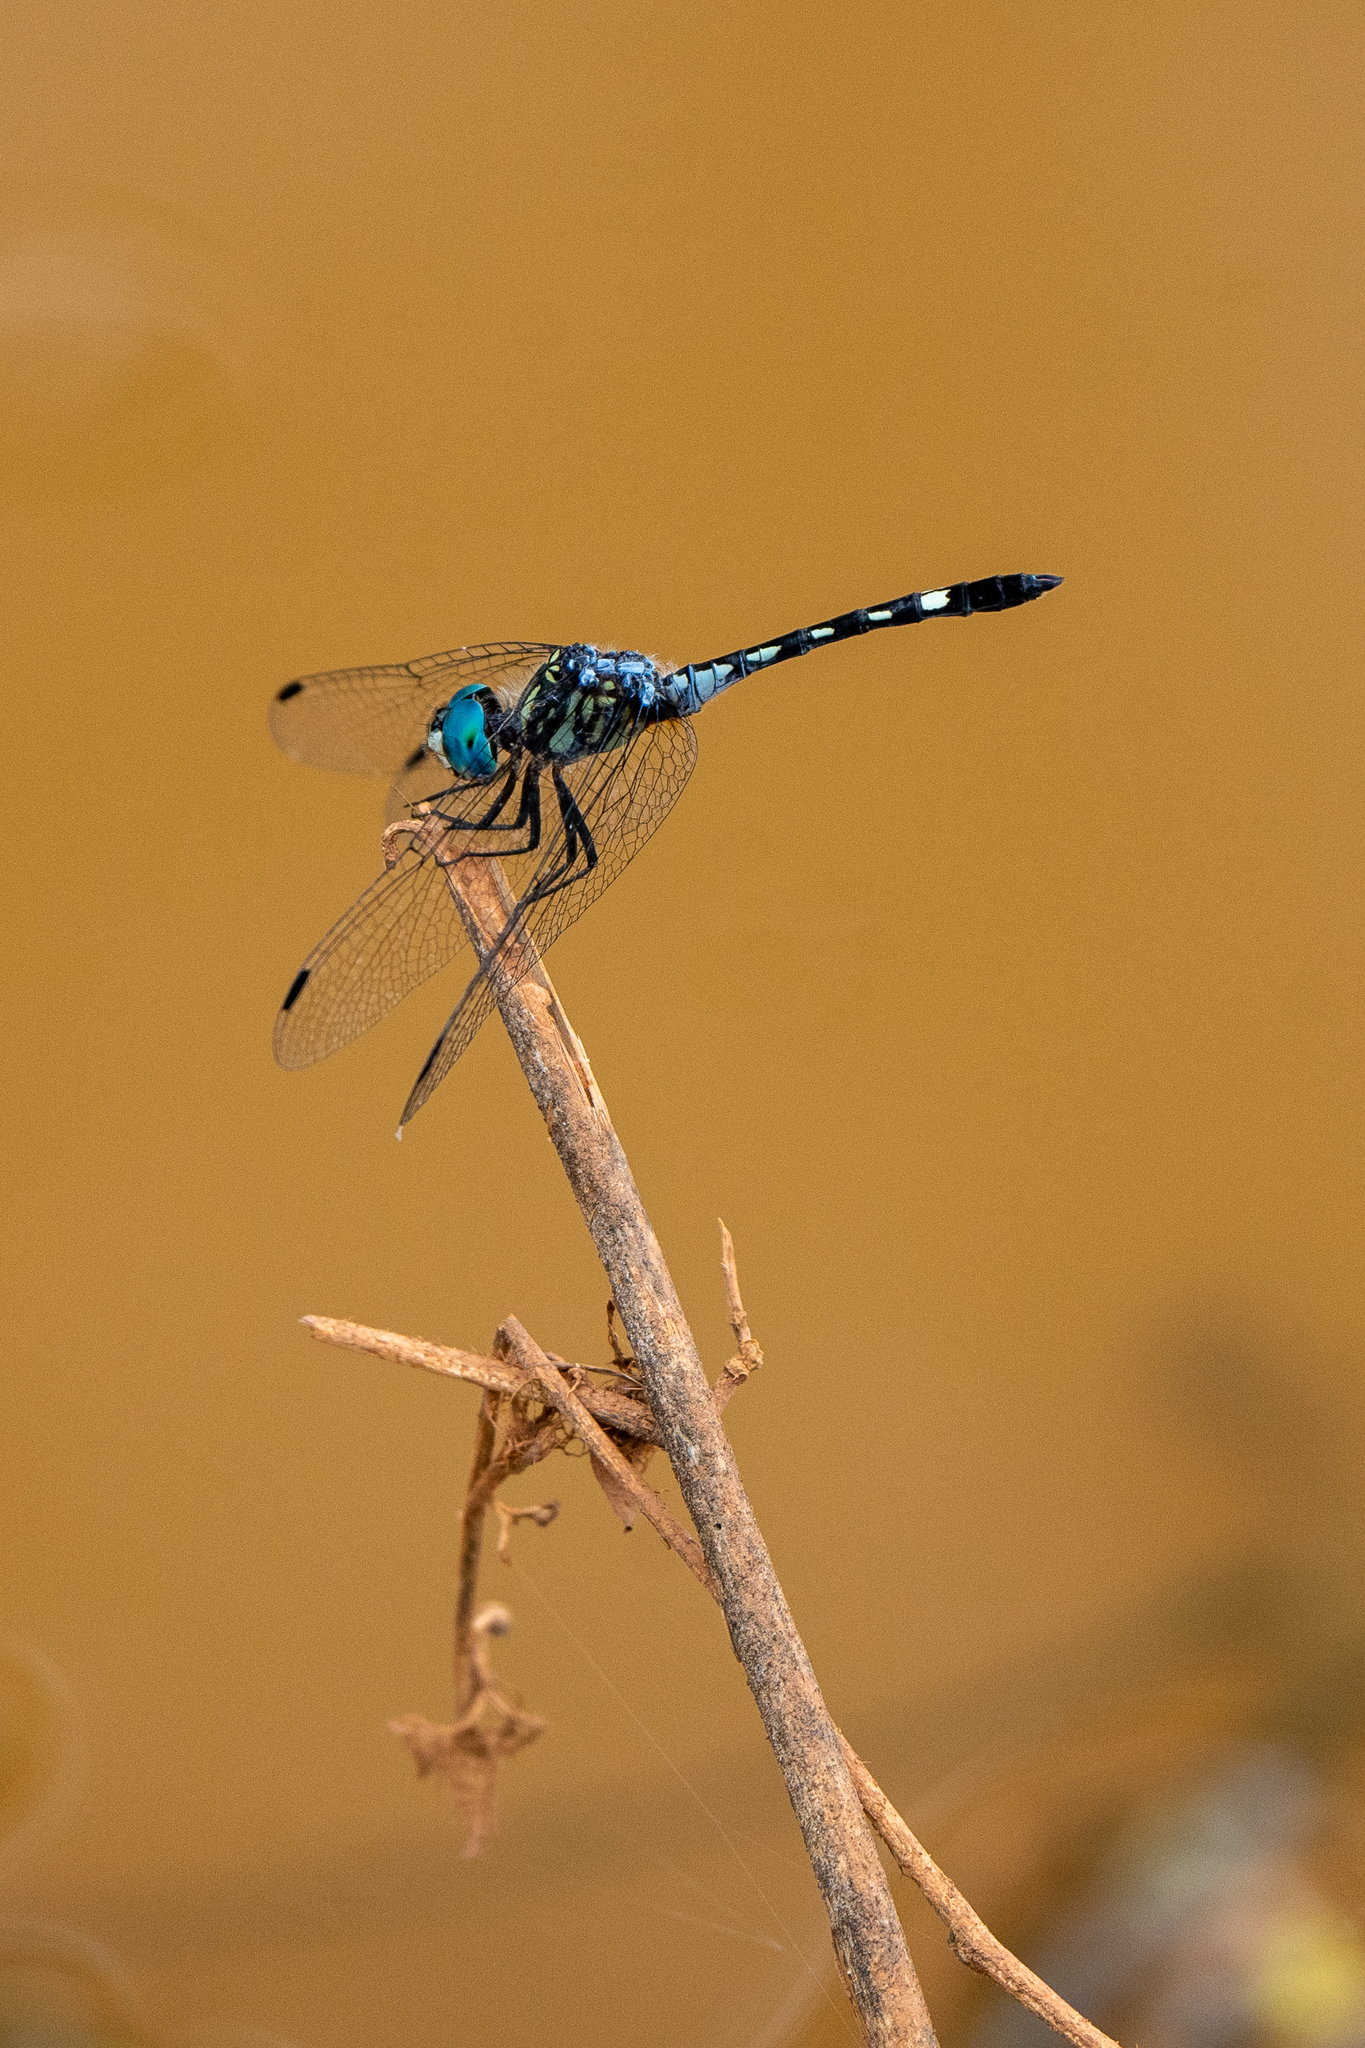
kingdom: Animalia
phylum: Arthropoda
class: Insecta
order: Odonata
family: Libellulidae
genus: Micrathyria
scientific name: Micrathyria hagenii
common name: Thornbush dasher
